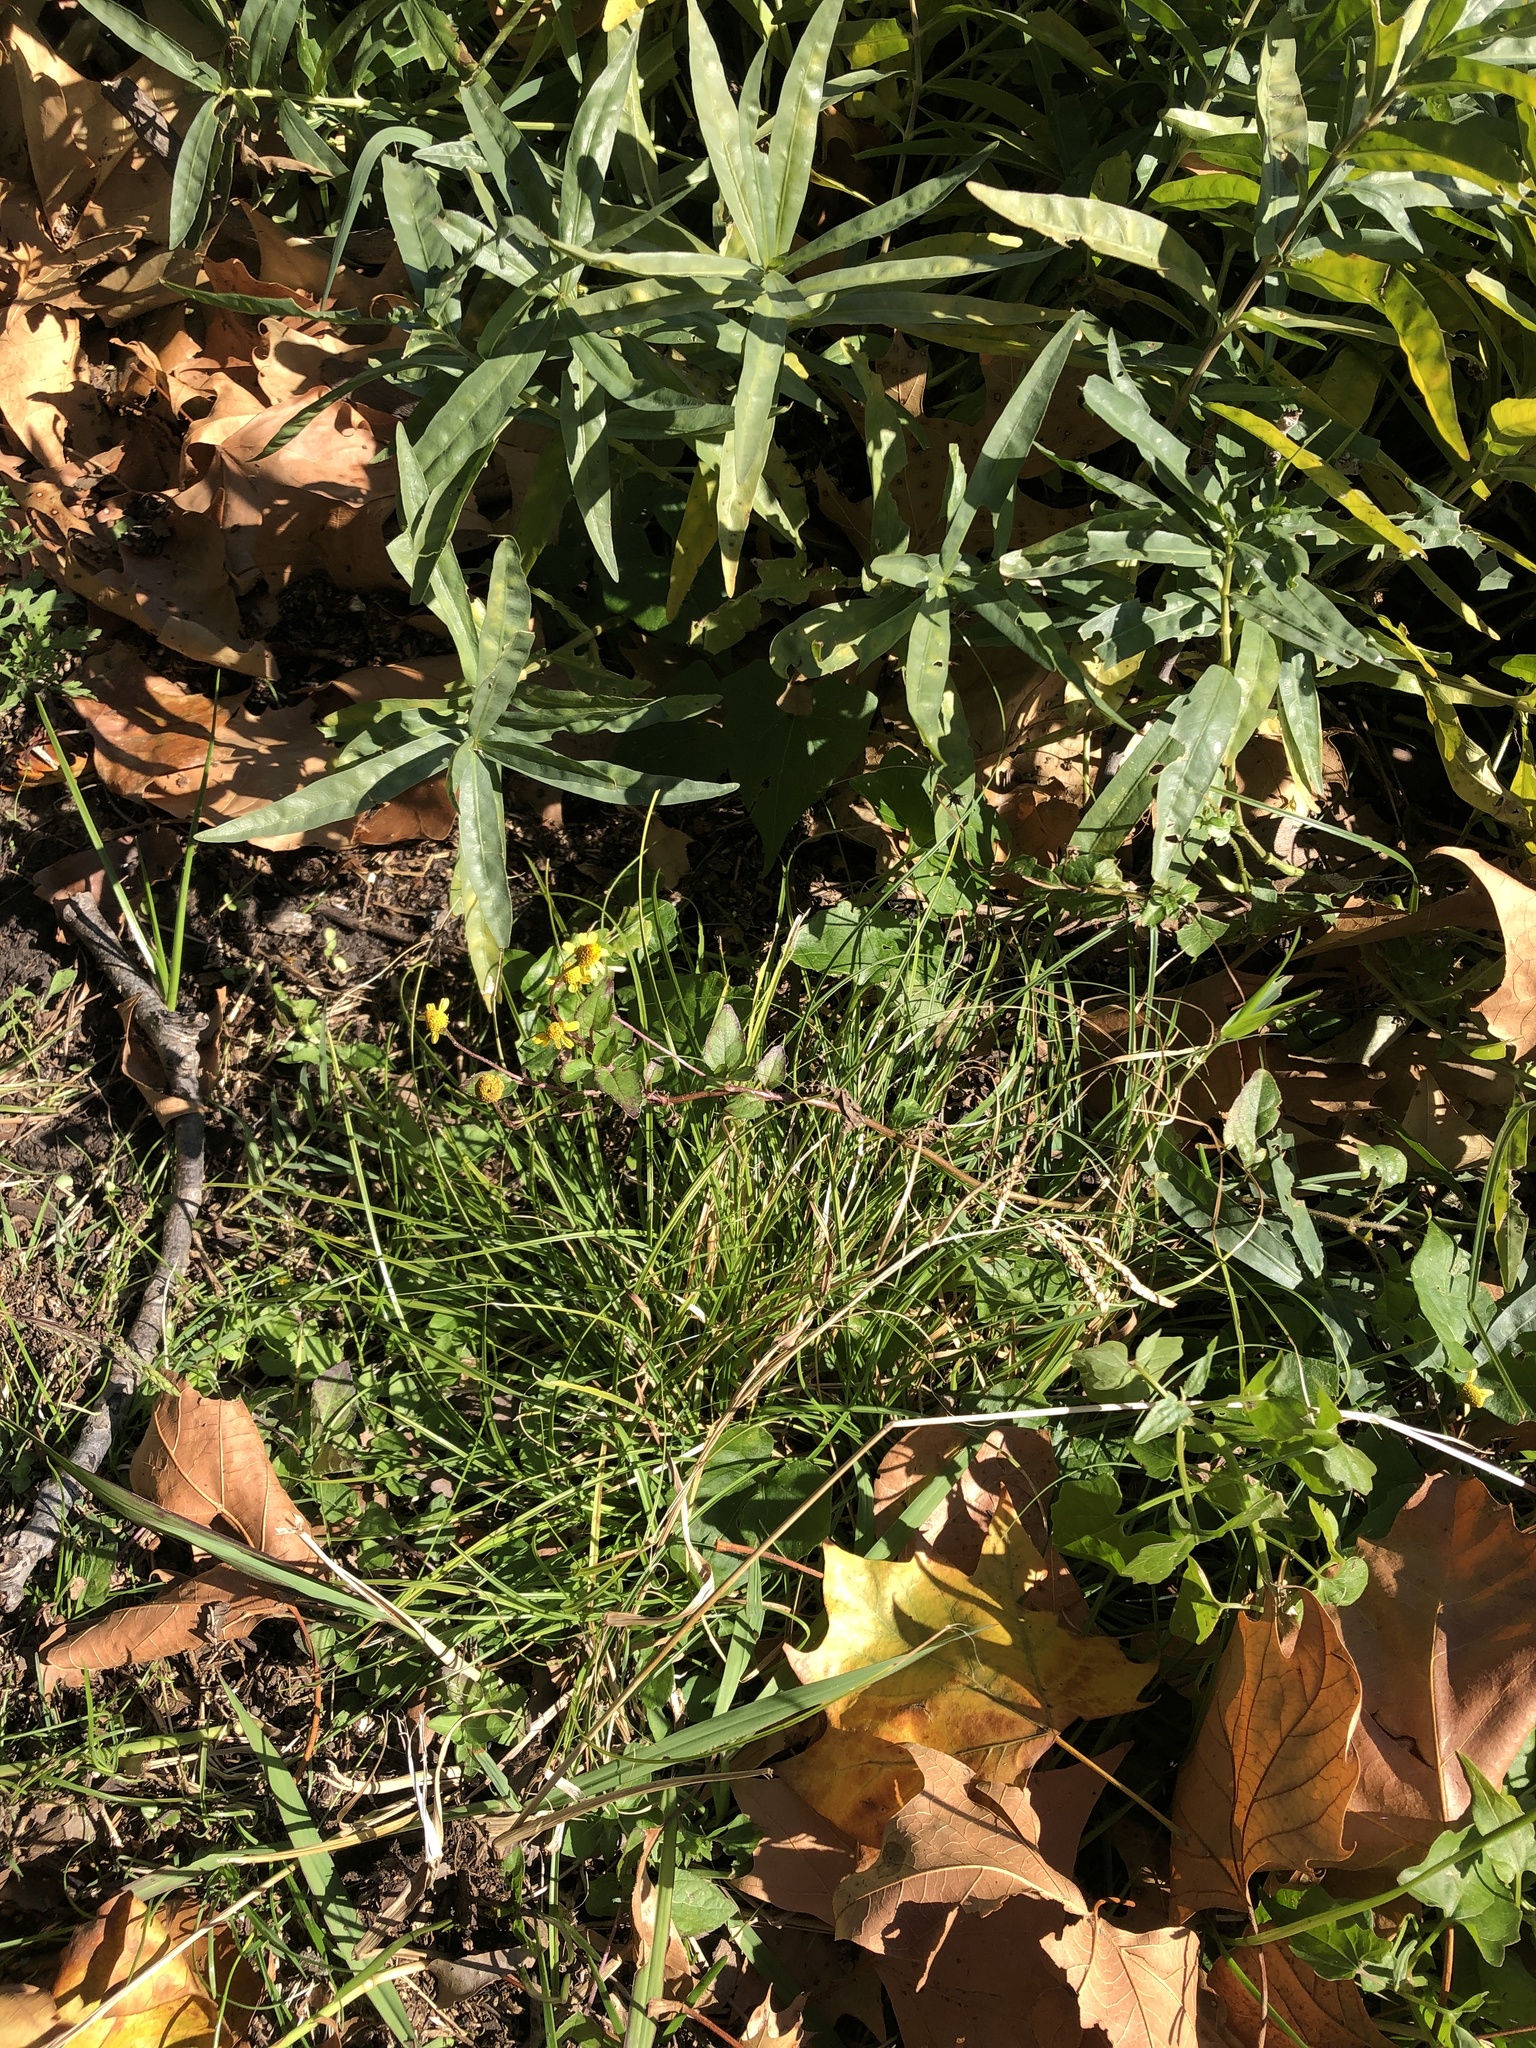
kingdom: Plantae
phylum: Tracheophyta
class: Magnoliopsida
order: Asterales
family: Asteraceae
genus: Acmella
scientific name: Acmella repens
